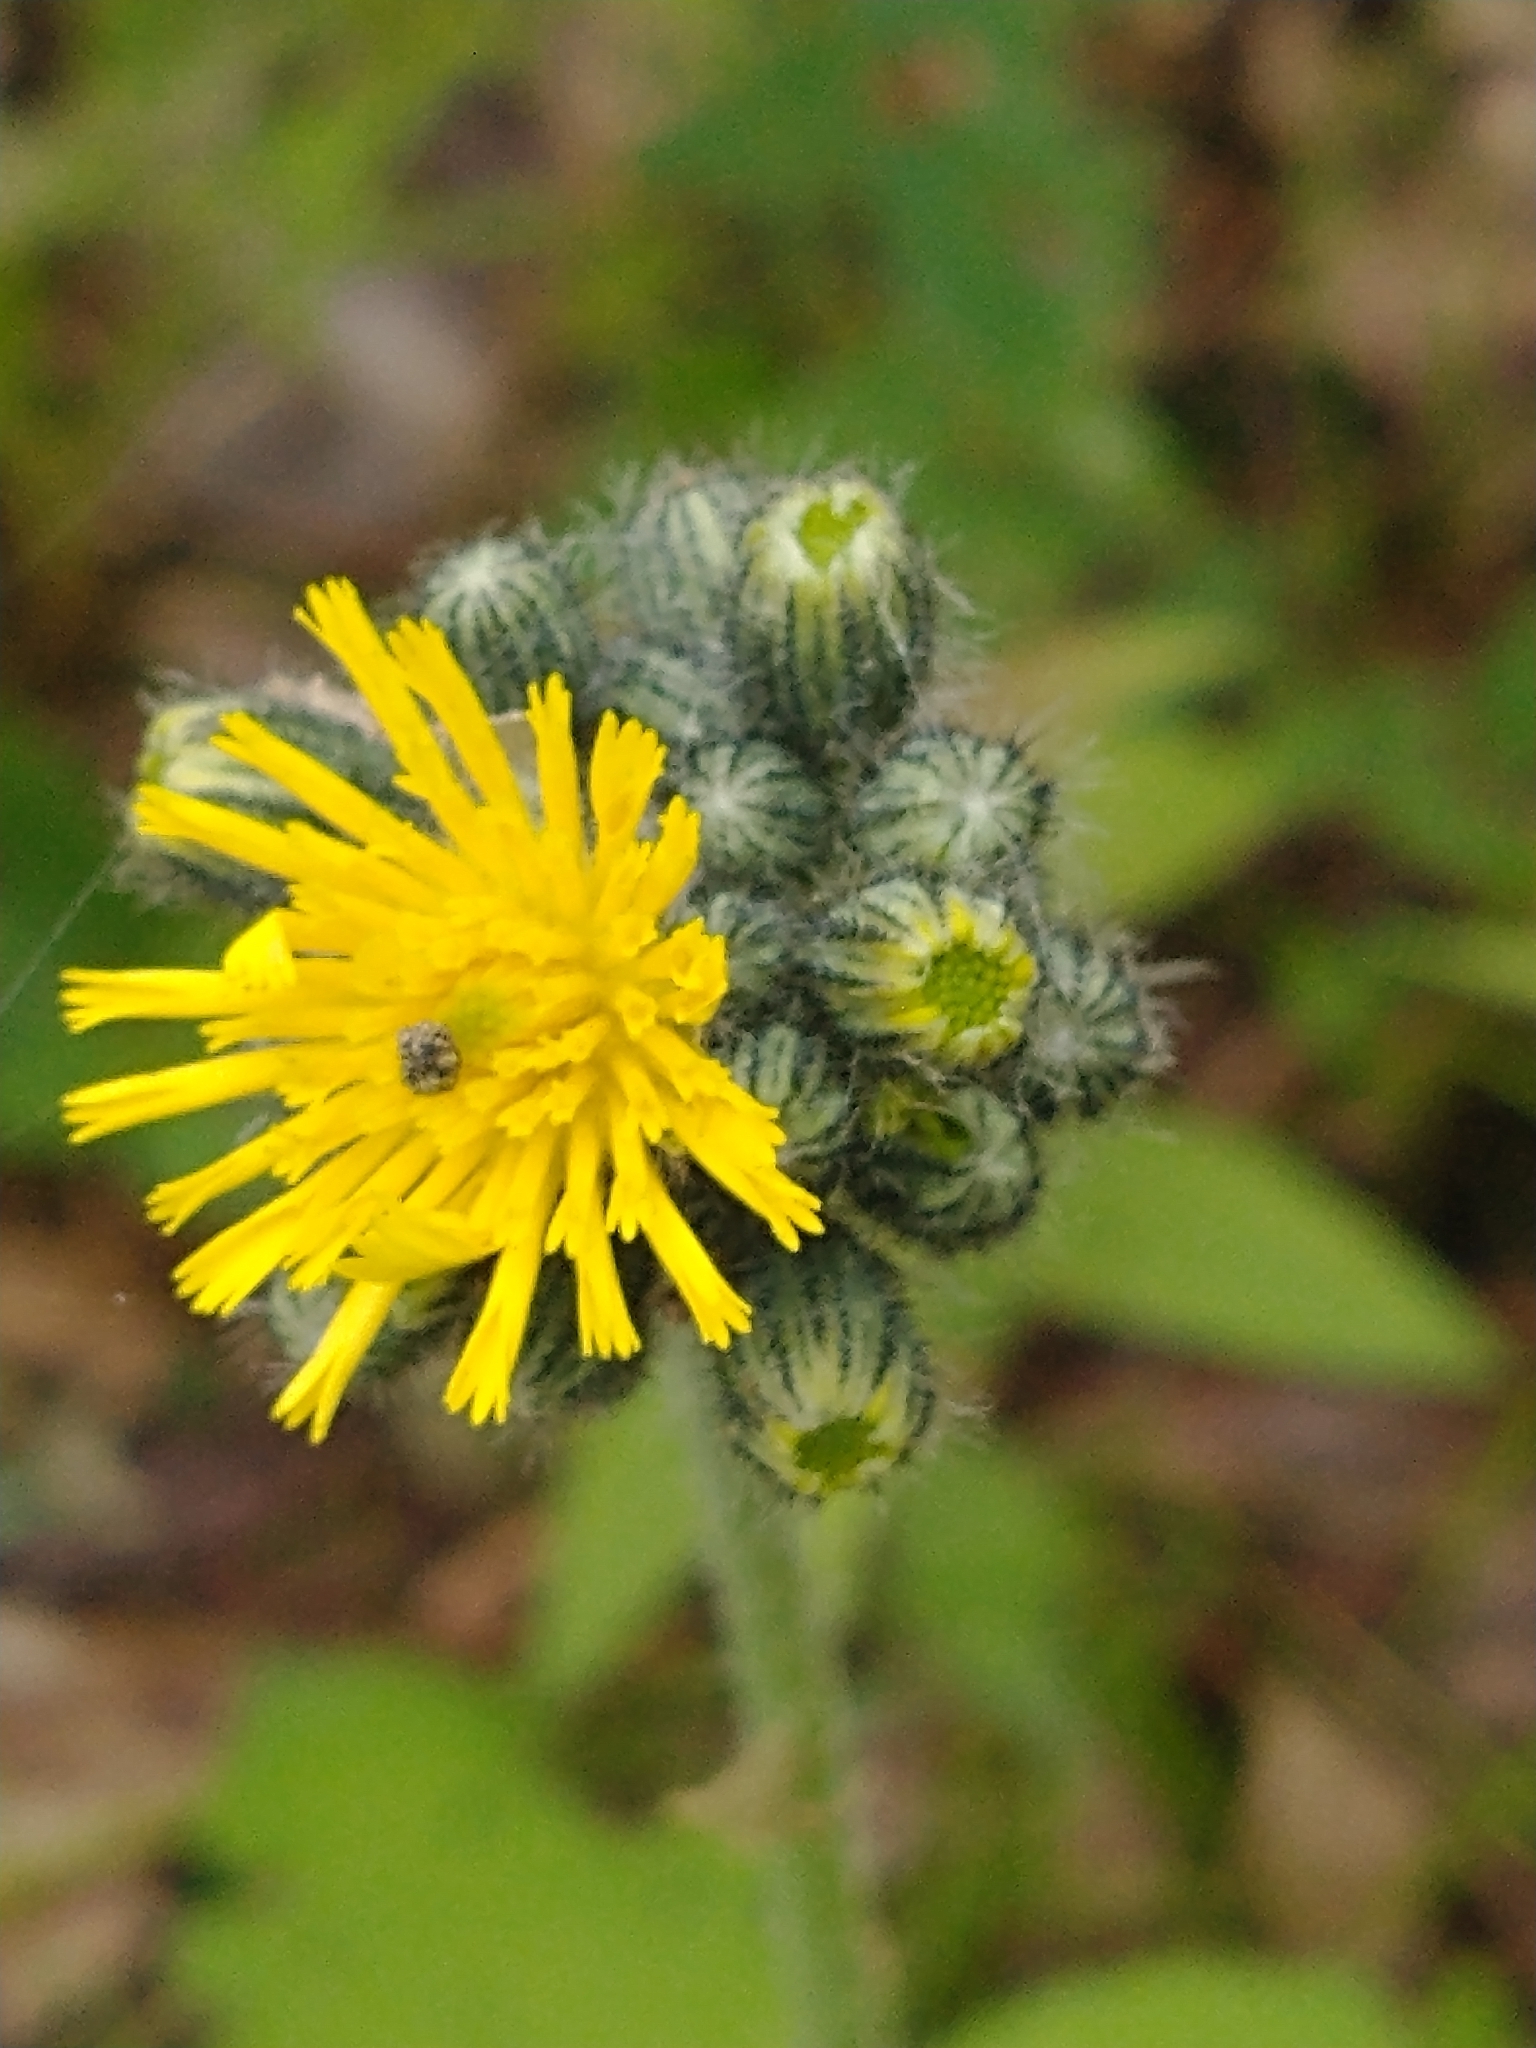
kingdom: Plantae
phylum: Tracheophyta
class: Magnoliopsida
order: Asterales
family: Asteraceae
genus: Pilosella
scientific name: Pilosella caespitosa
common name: Yellow fox-and-cubs
